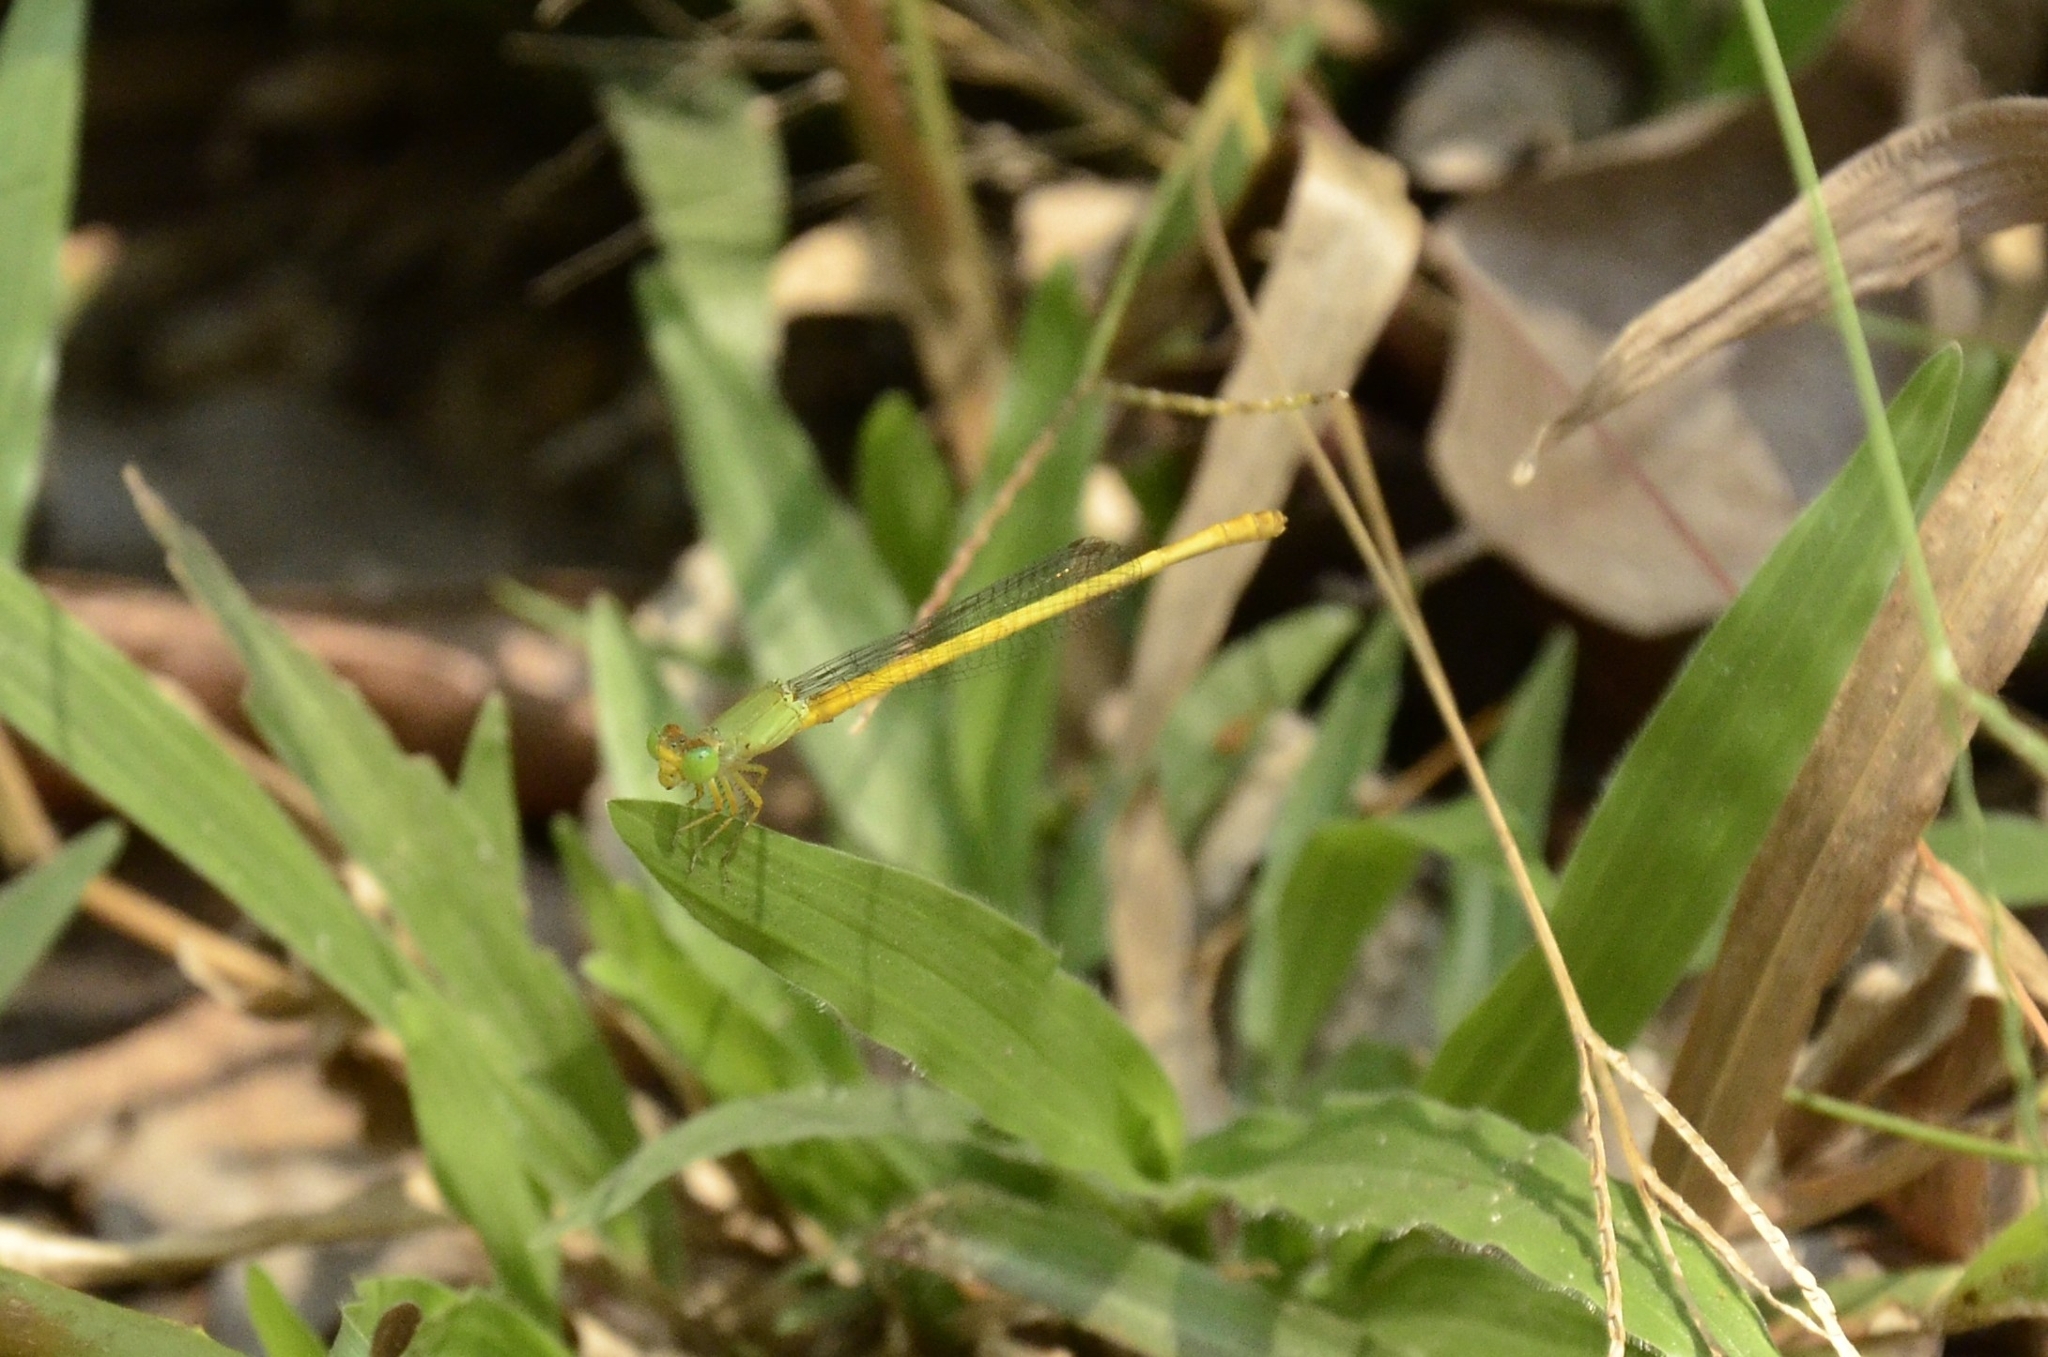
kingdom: Animalia
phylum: Arthropoda
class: Insecta
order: Odonata
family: Coenagrionidae
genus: Ceriagrion
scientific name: Ceriagrion coromandelianum
